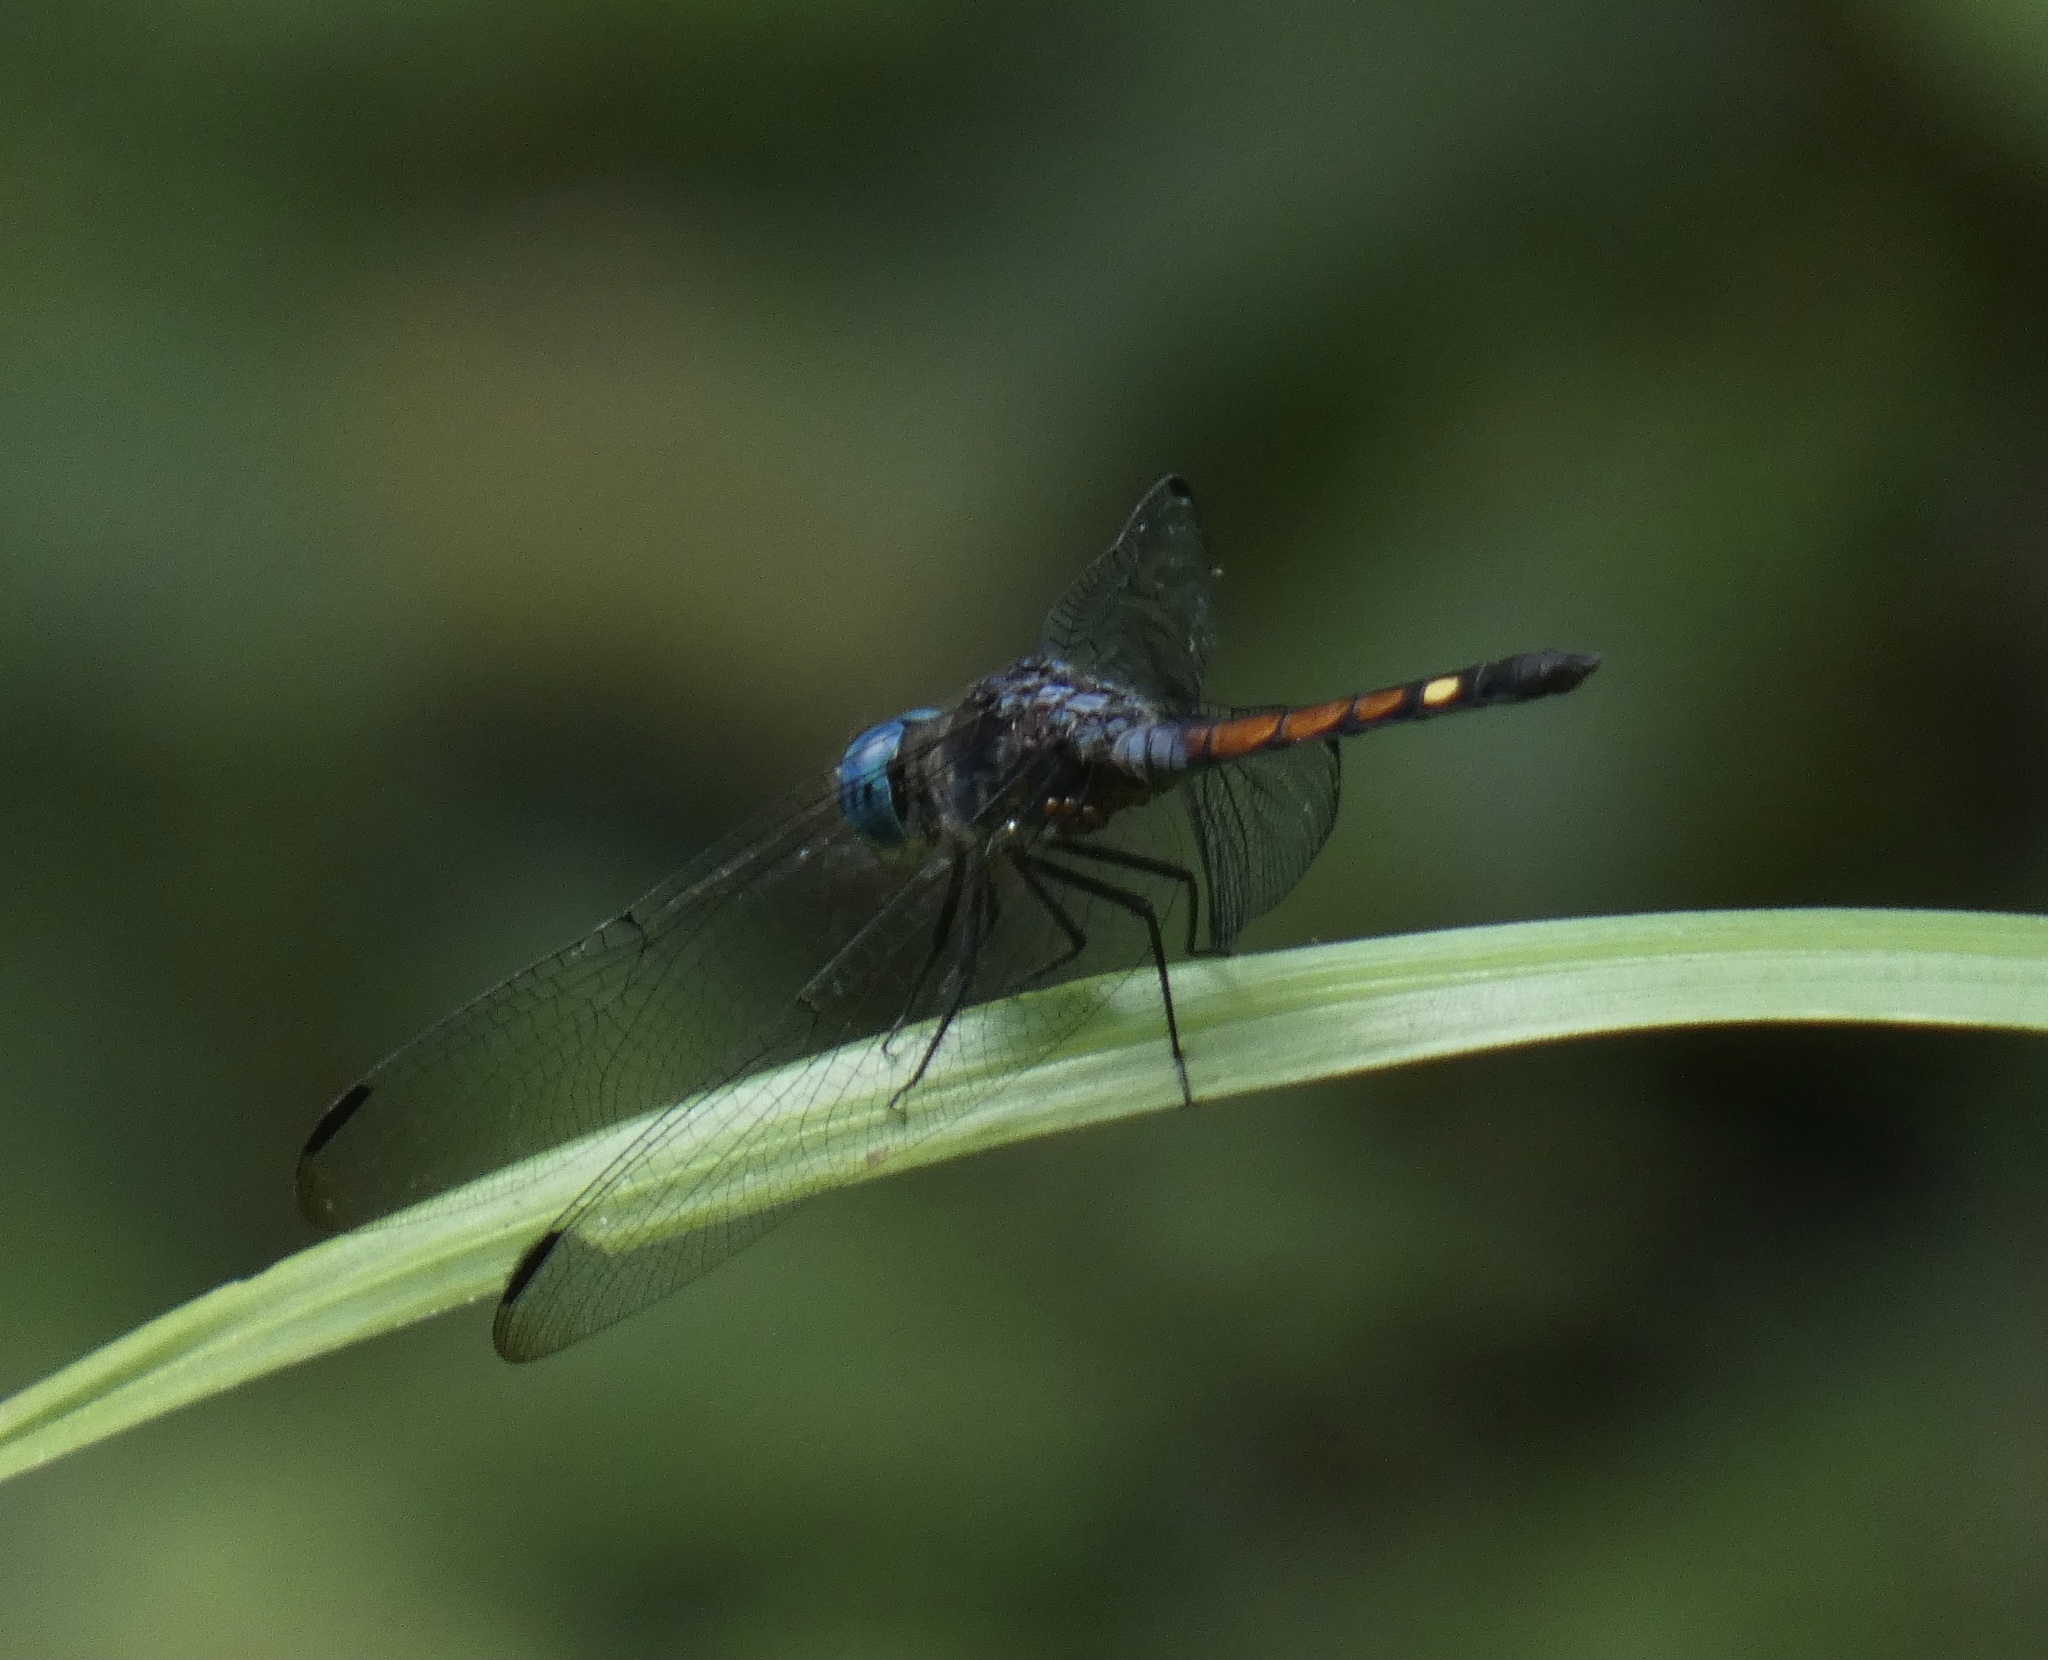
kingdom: Animalia
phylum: Arthropoda
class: Insecta
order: Odonata
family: Libellulidae
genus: Micrathyria
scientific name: Micrathyria atra
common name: Black dasher
